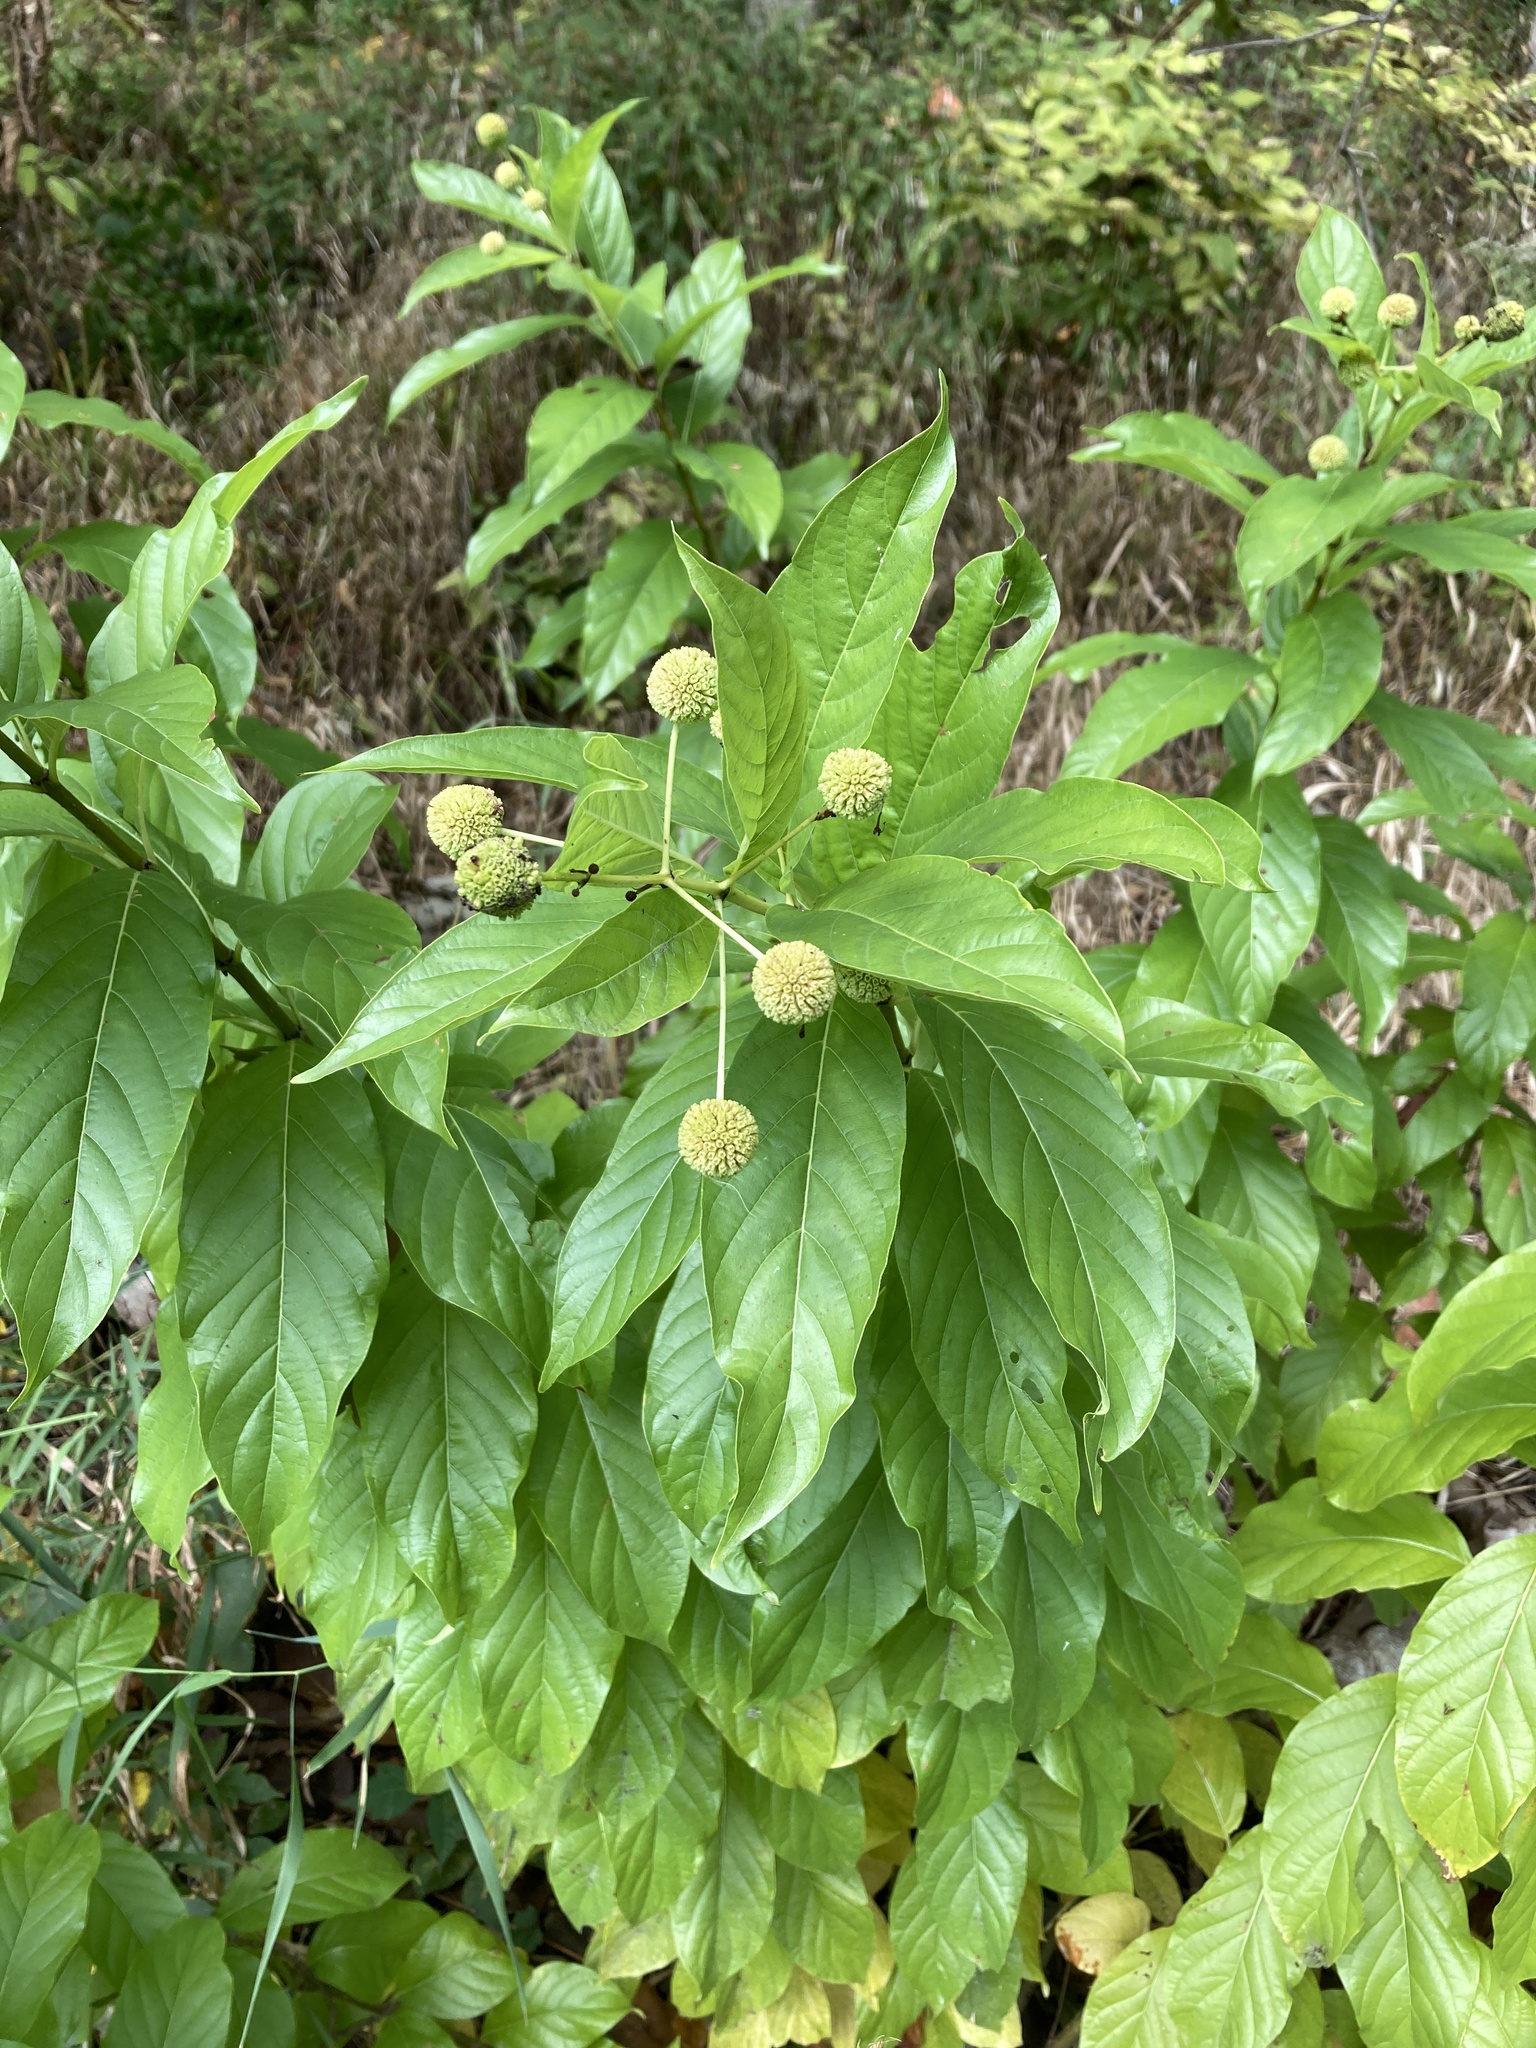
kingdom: Plantae
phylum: Tracheophyta
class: Magnoliopsida
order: Gentianales
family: Rubiaceae
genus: Cephalanthus
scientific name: Cephalanthus occidentalis
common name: Button-willow
